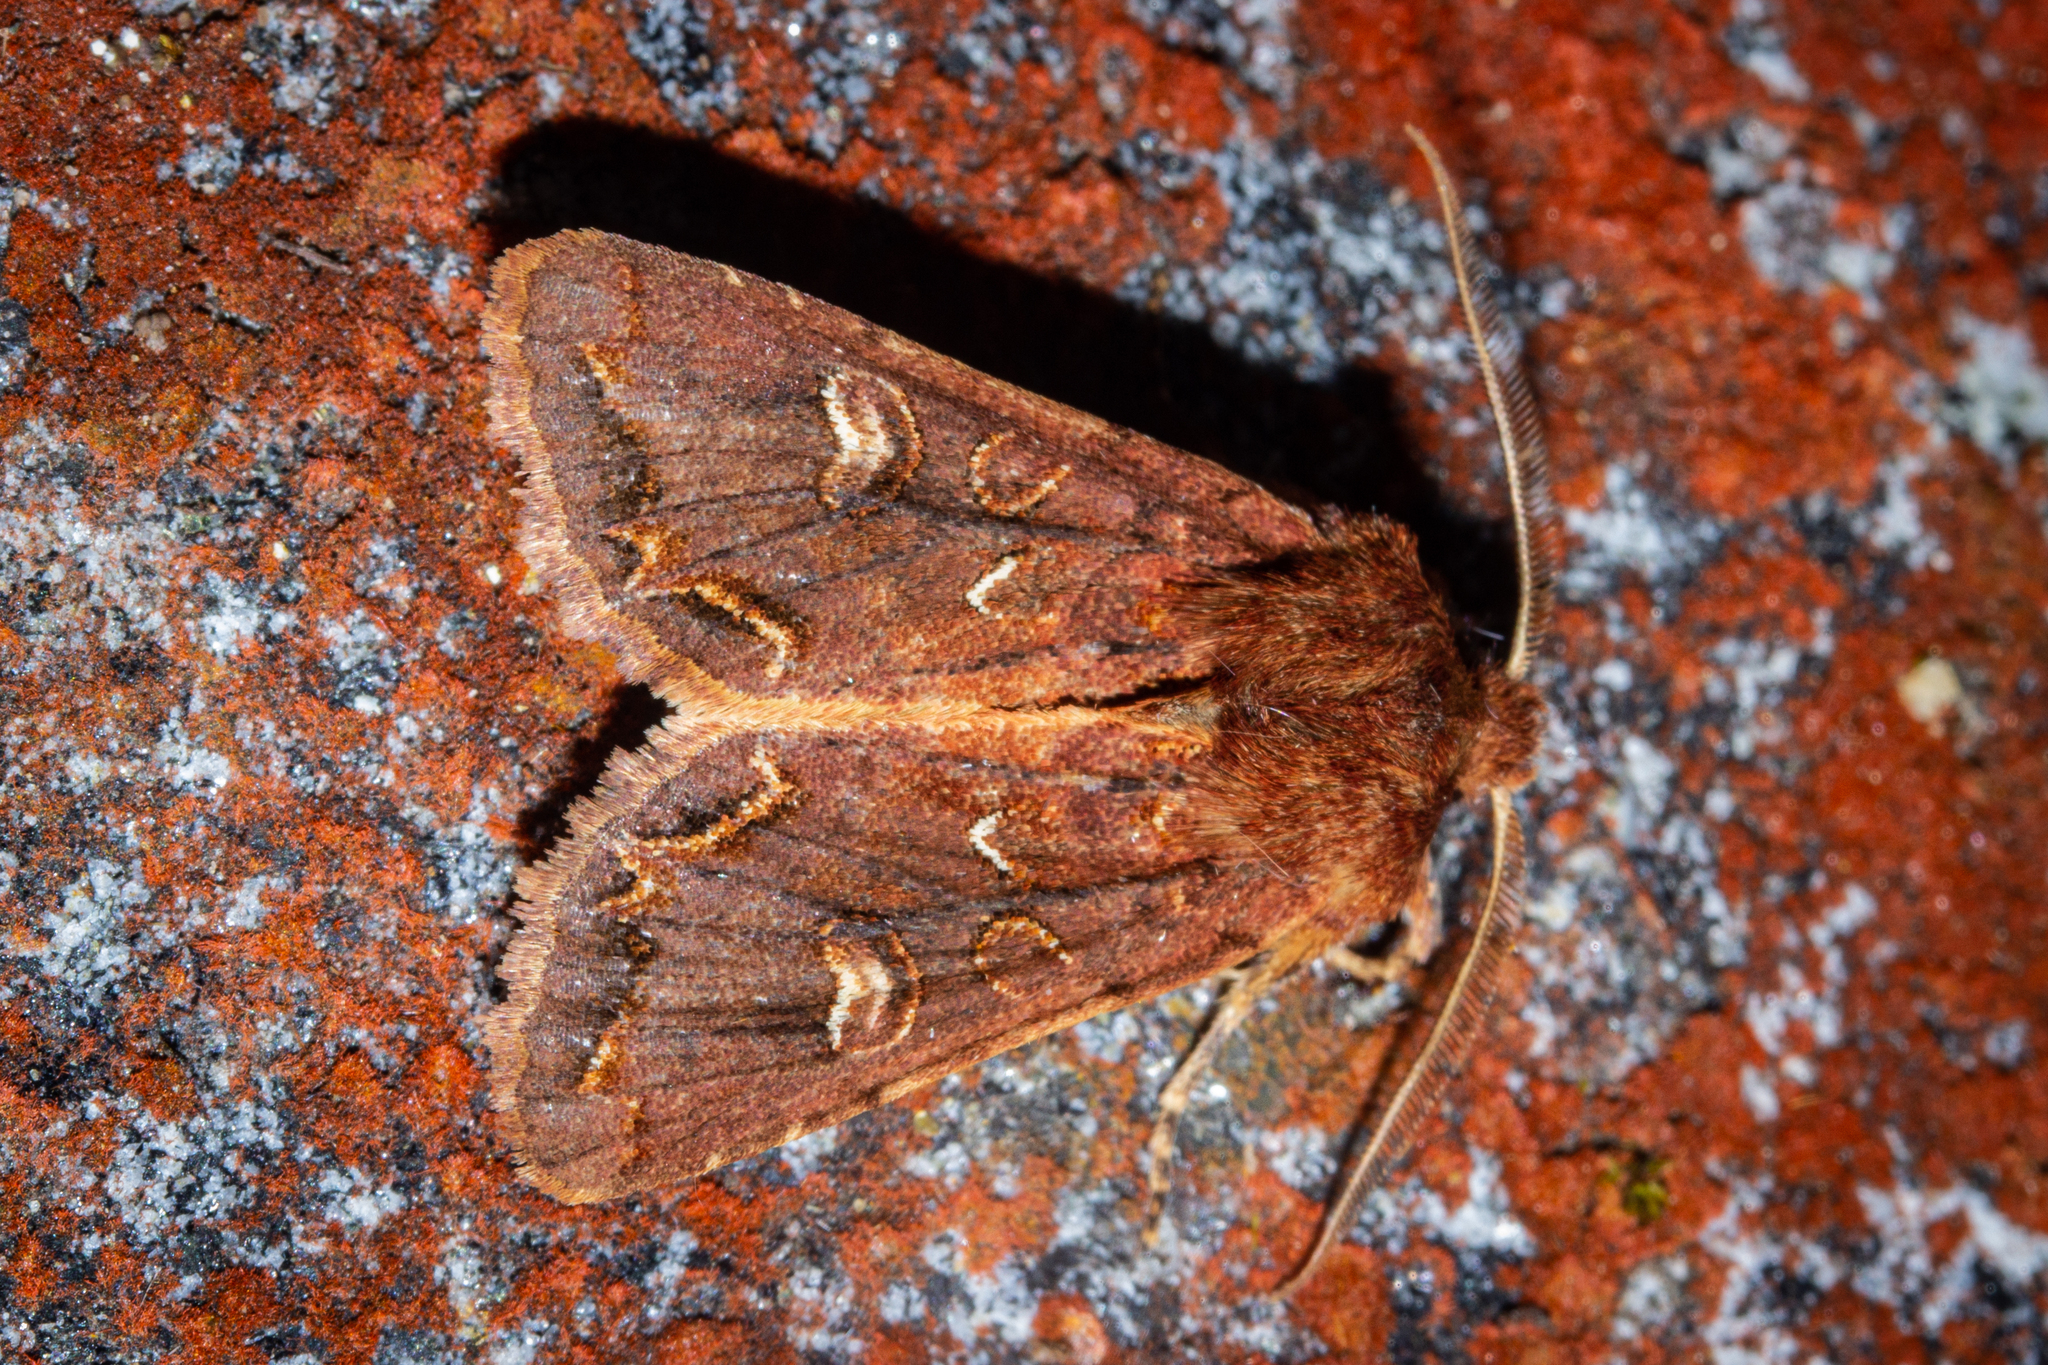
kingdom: Animalia
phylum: Arthropoda
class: Insecta
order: Lepidoptera
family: Noctuidae
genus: Ichneutica
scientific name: Ichneutica
